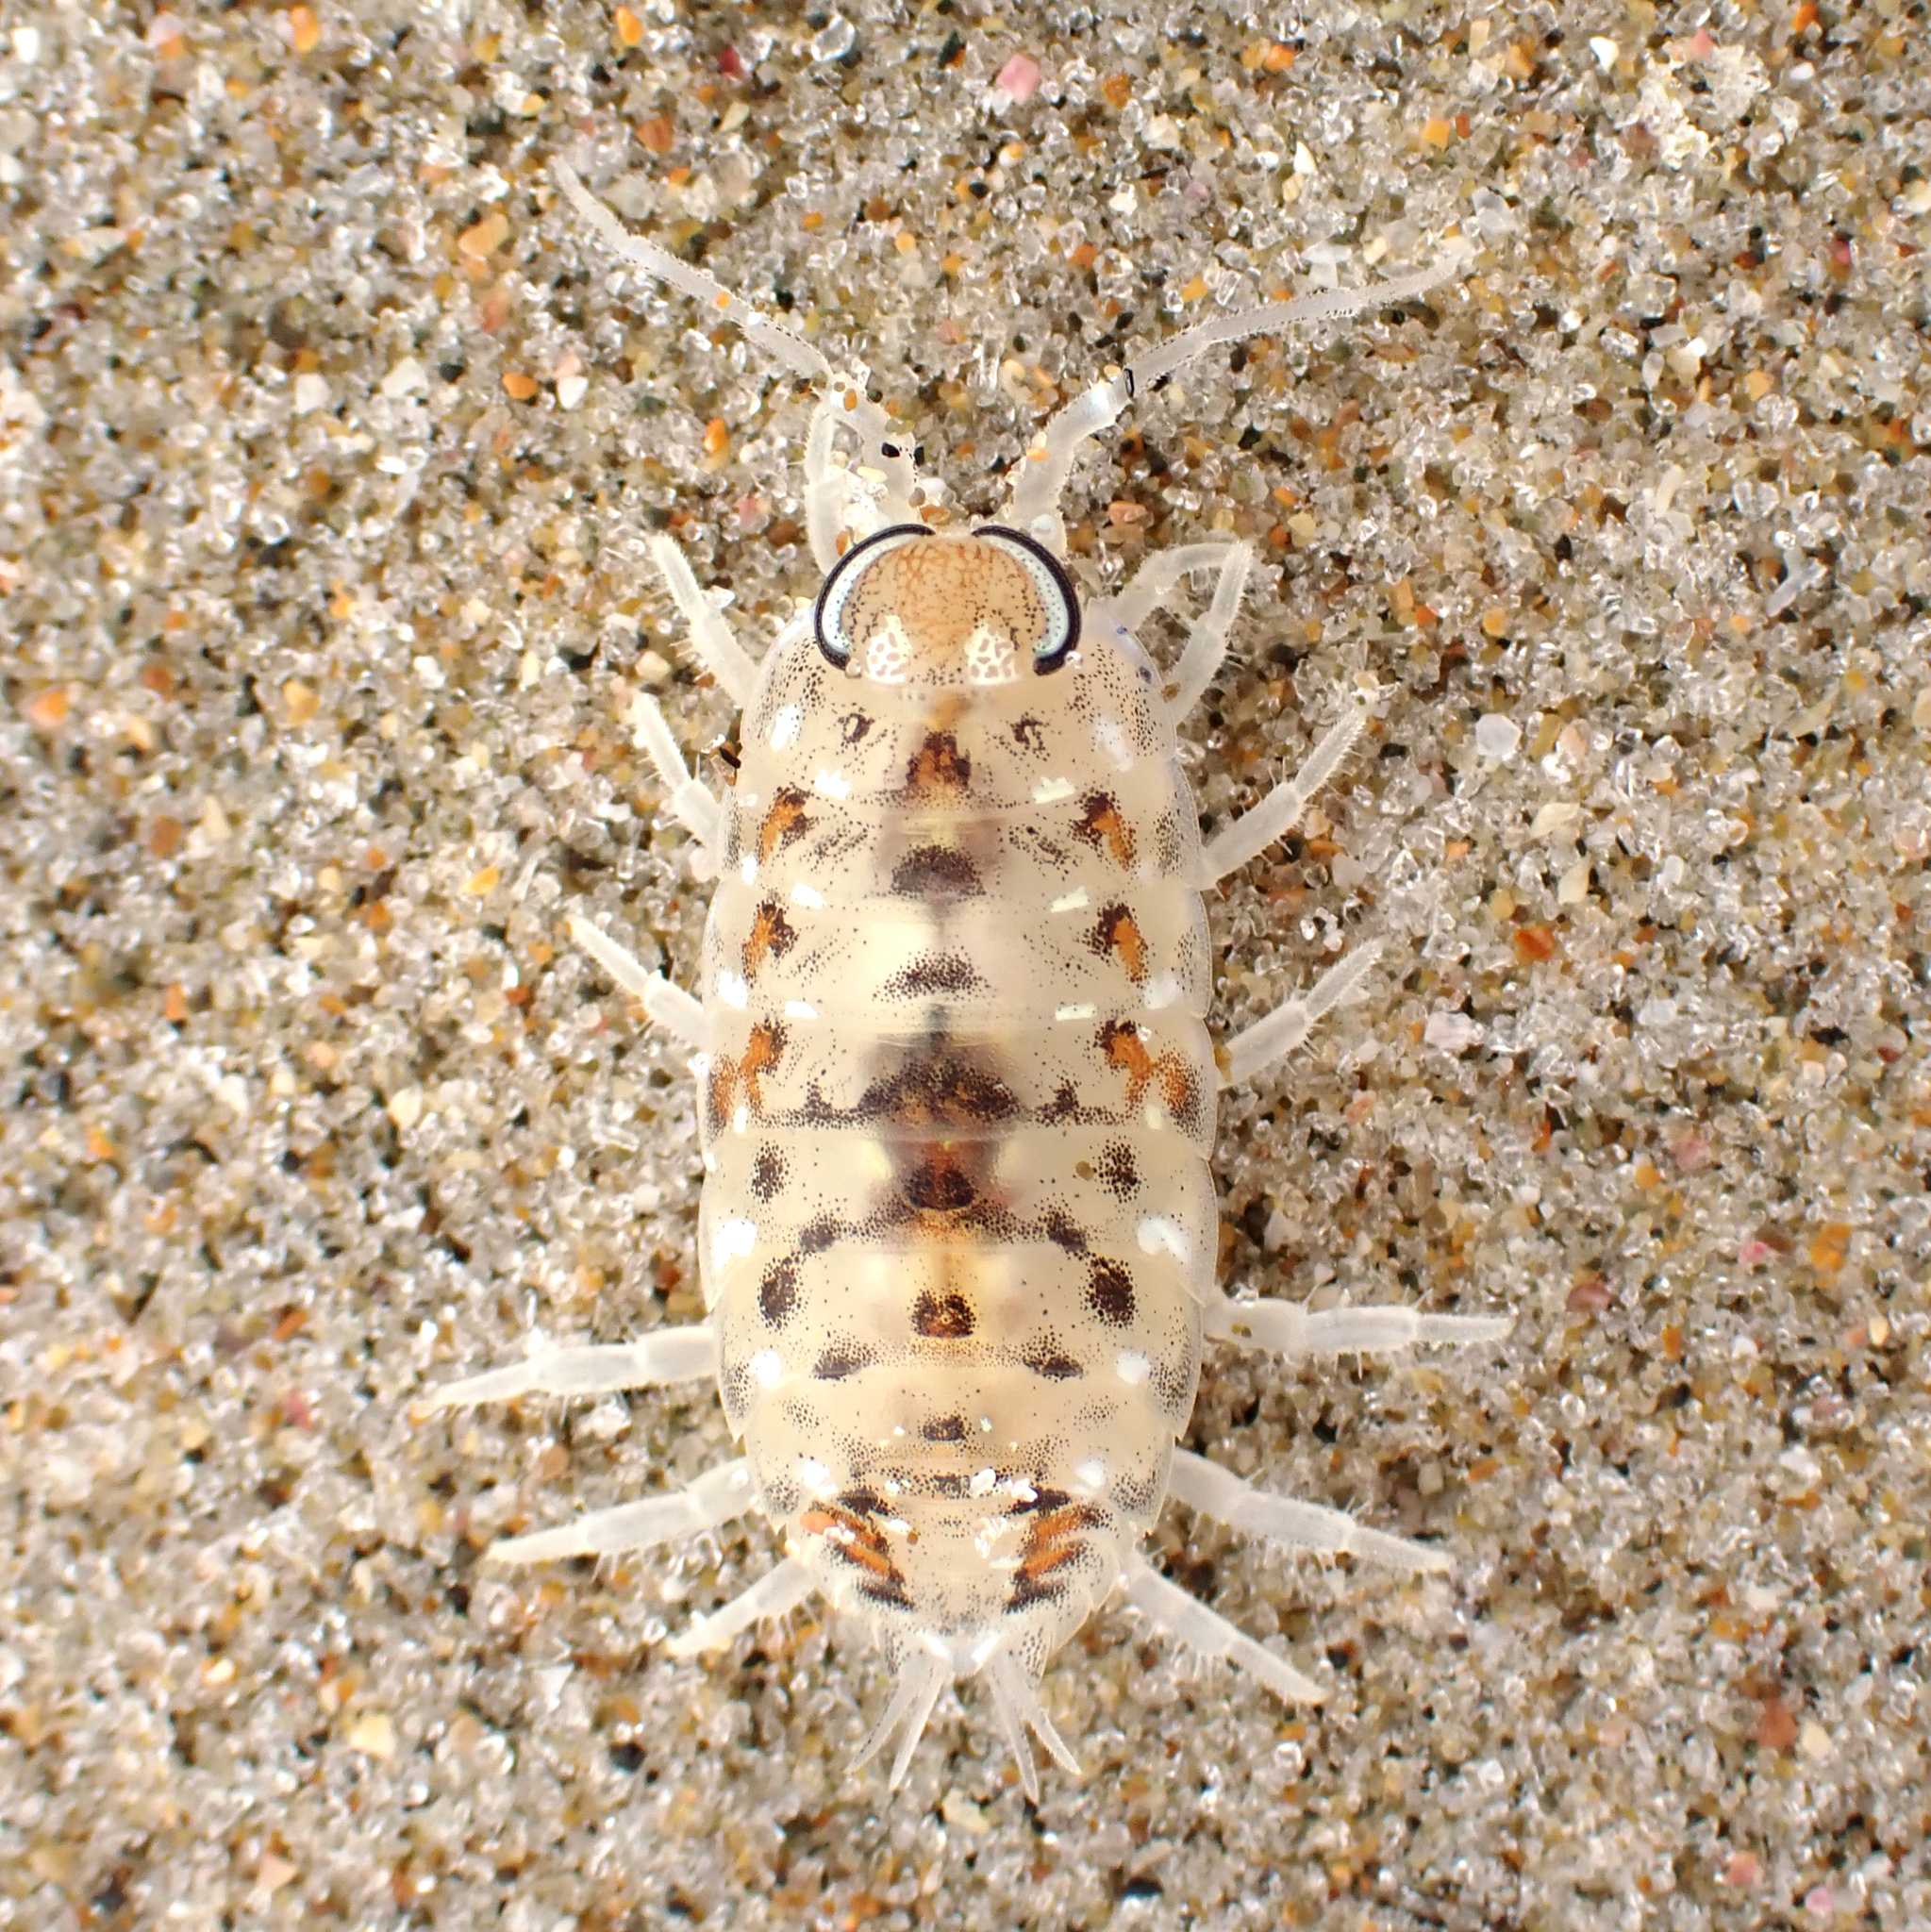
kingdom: Animalia
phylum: Arthropoda
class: Malacostraca
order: Isopoda
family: Scyphacidae
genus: Scyphax
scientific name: Scyphax ornatus
